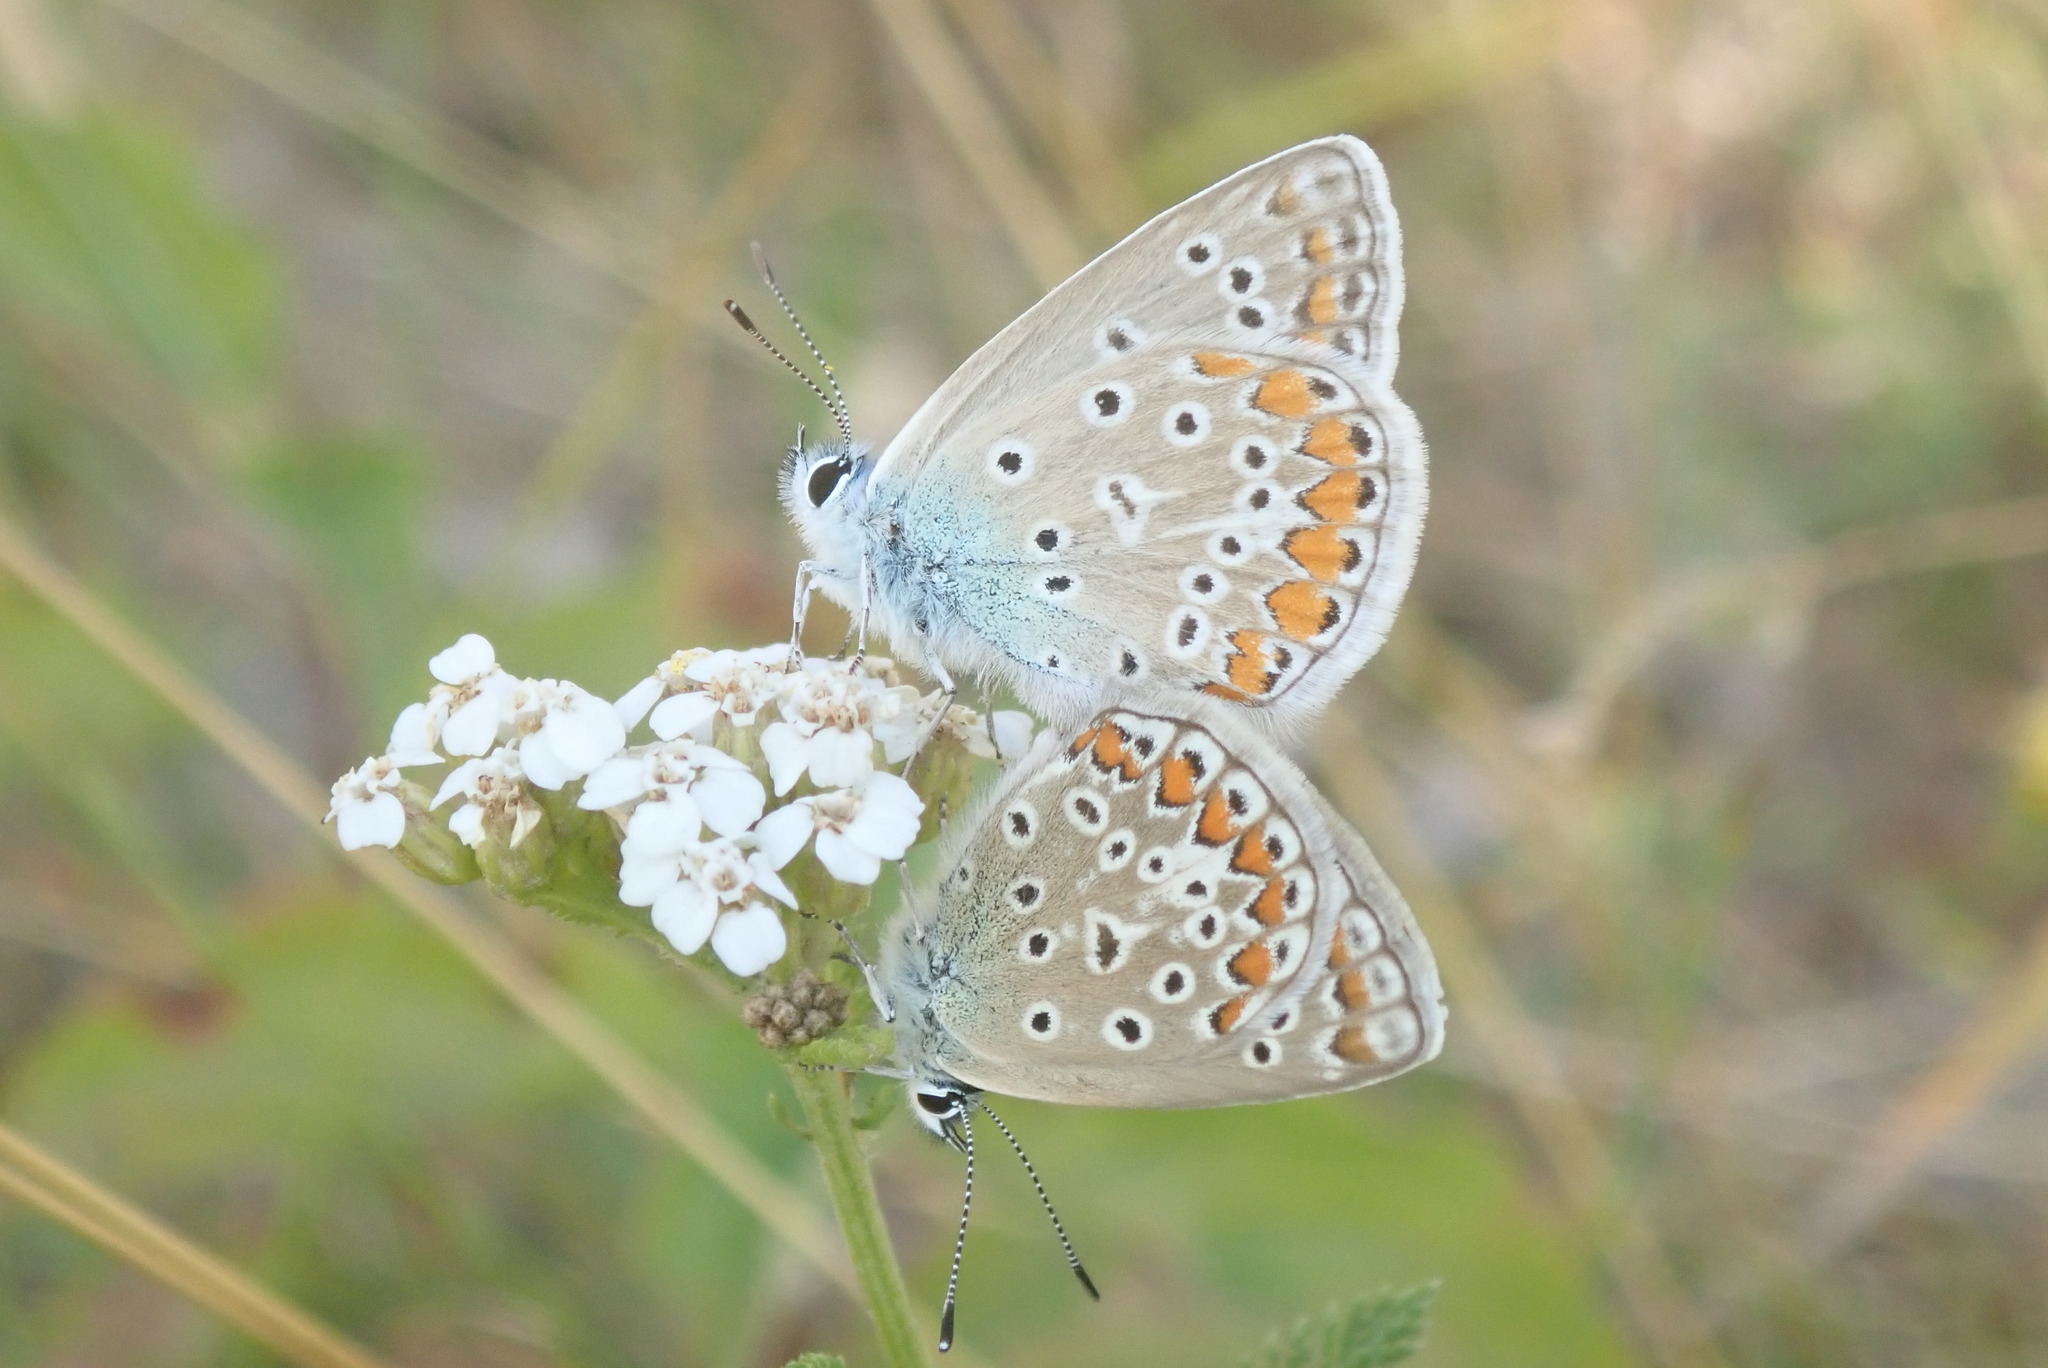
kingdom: Animalia
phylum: Arthropoda
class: Insecta
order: Lepidoptera
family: Lycaenidae
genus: Polyommatus
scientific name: Polyommatus icarus
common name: Common blue
